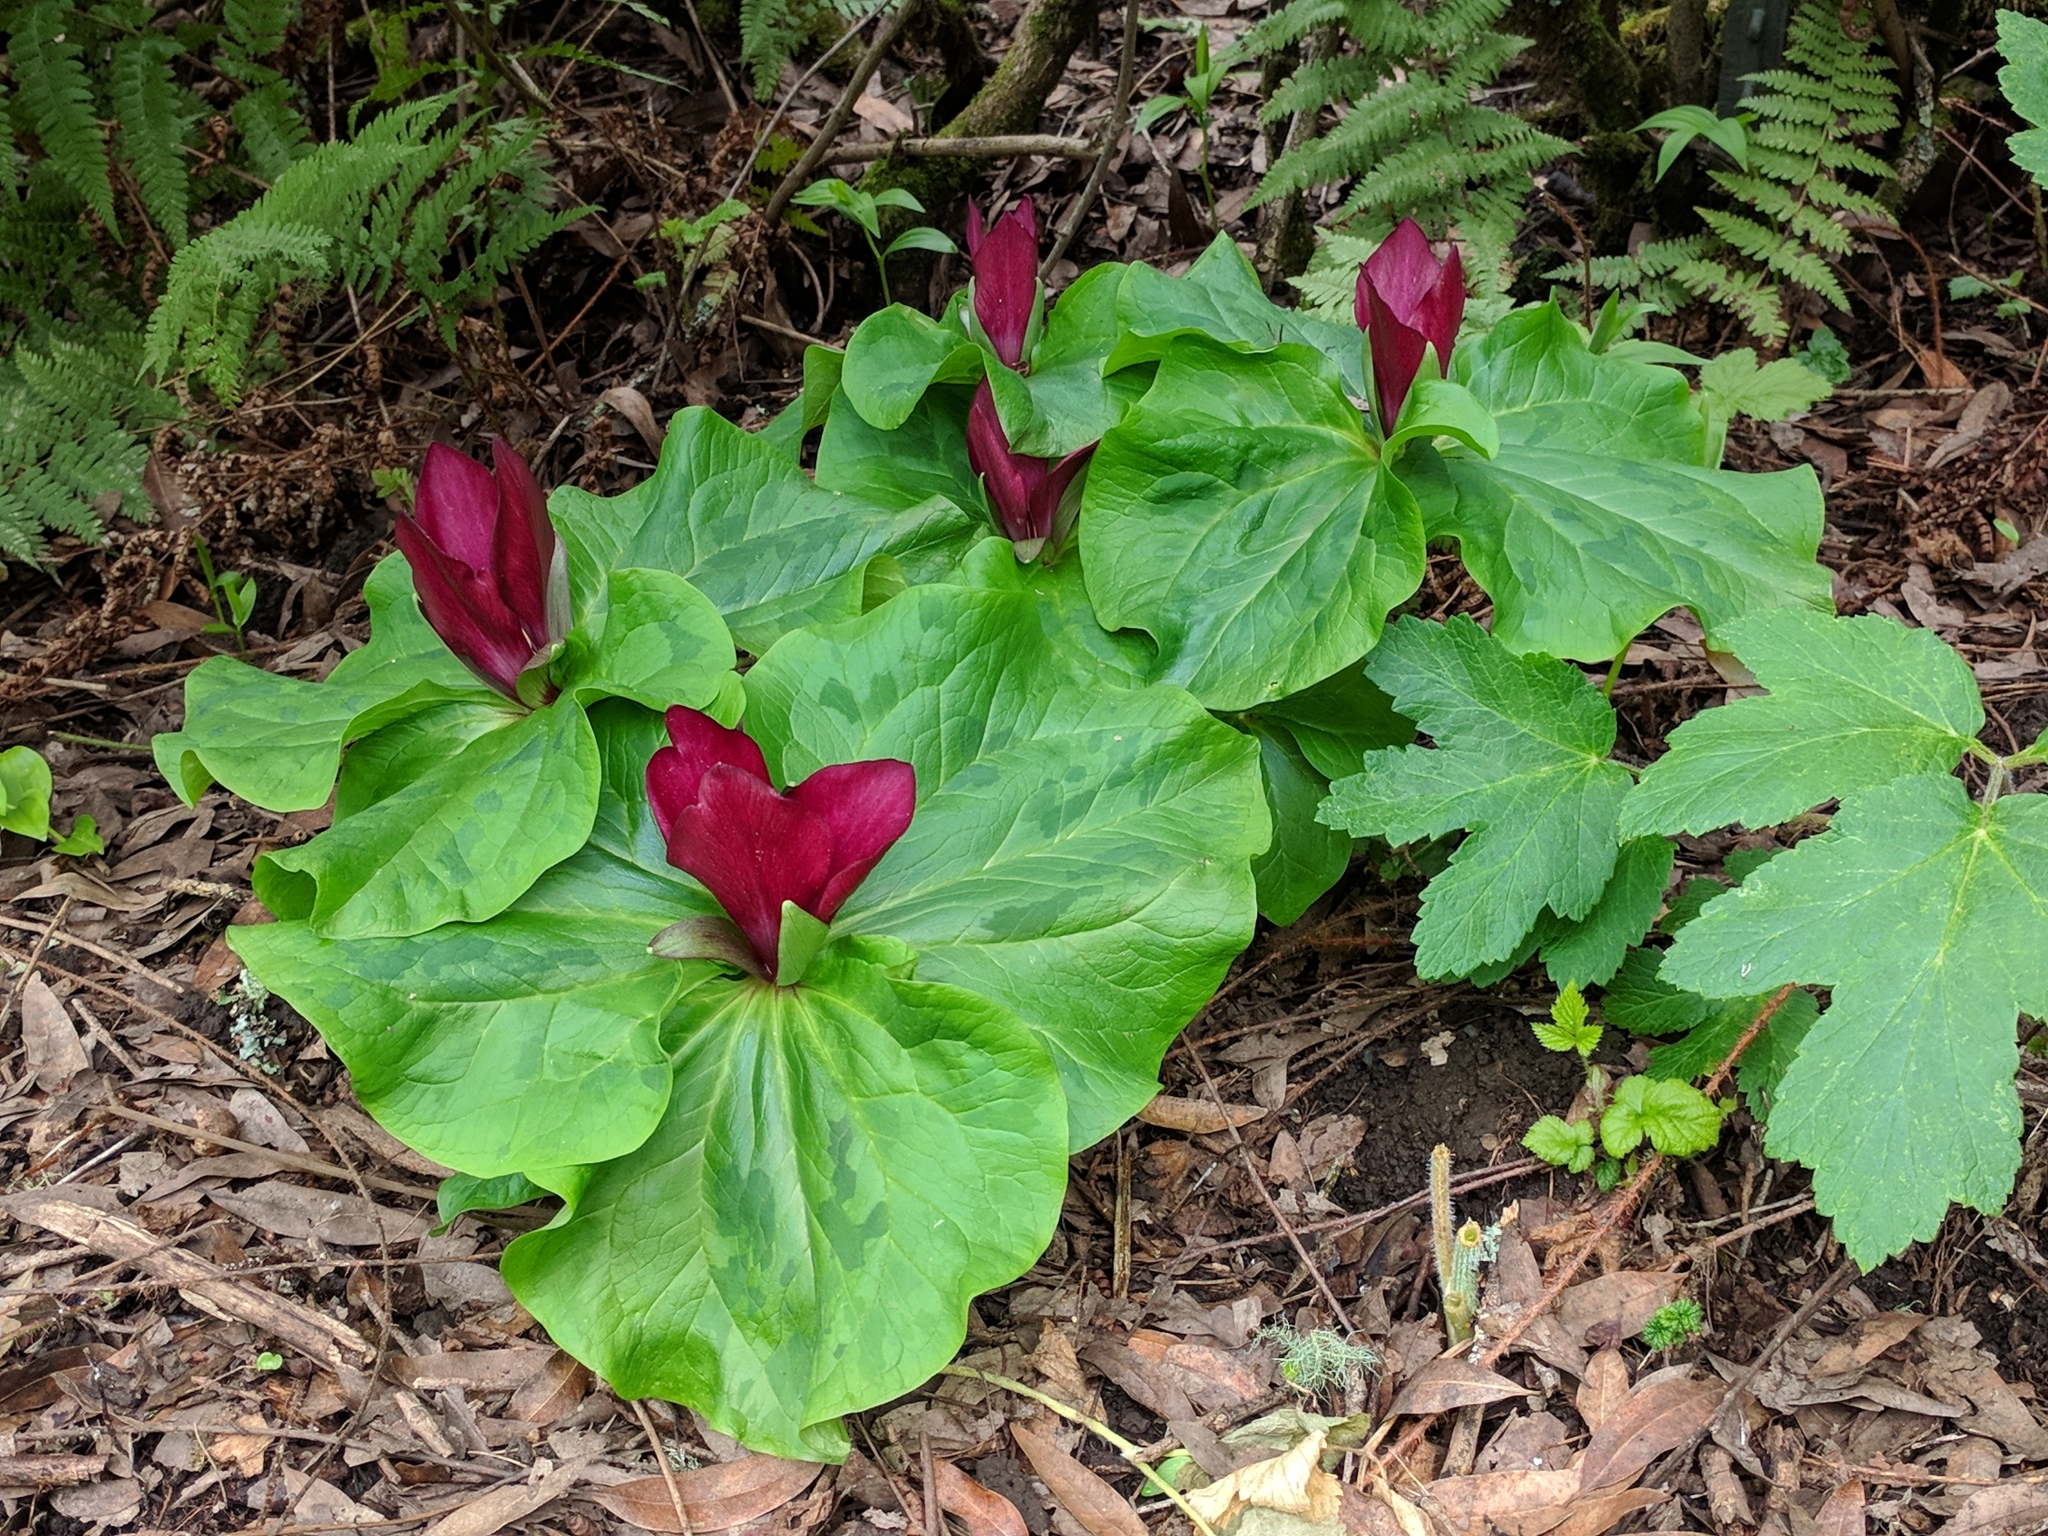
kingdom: Plantae
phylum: Tracheophyta
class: Liliopsida
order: Liliales
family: Melanthiaceae
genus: Trillium
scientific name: Trillium chloropetalum
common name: Giant trillium
